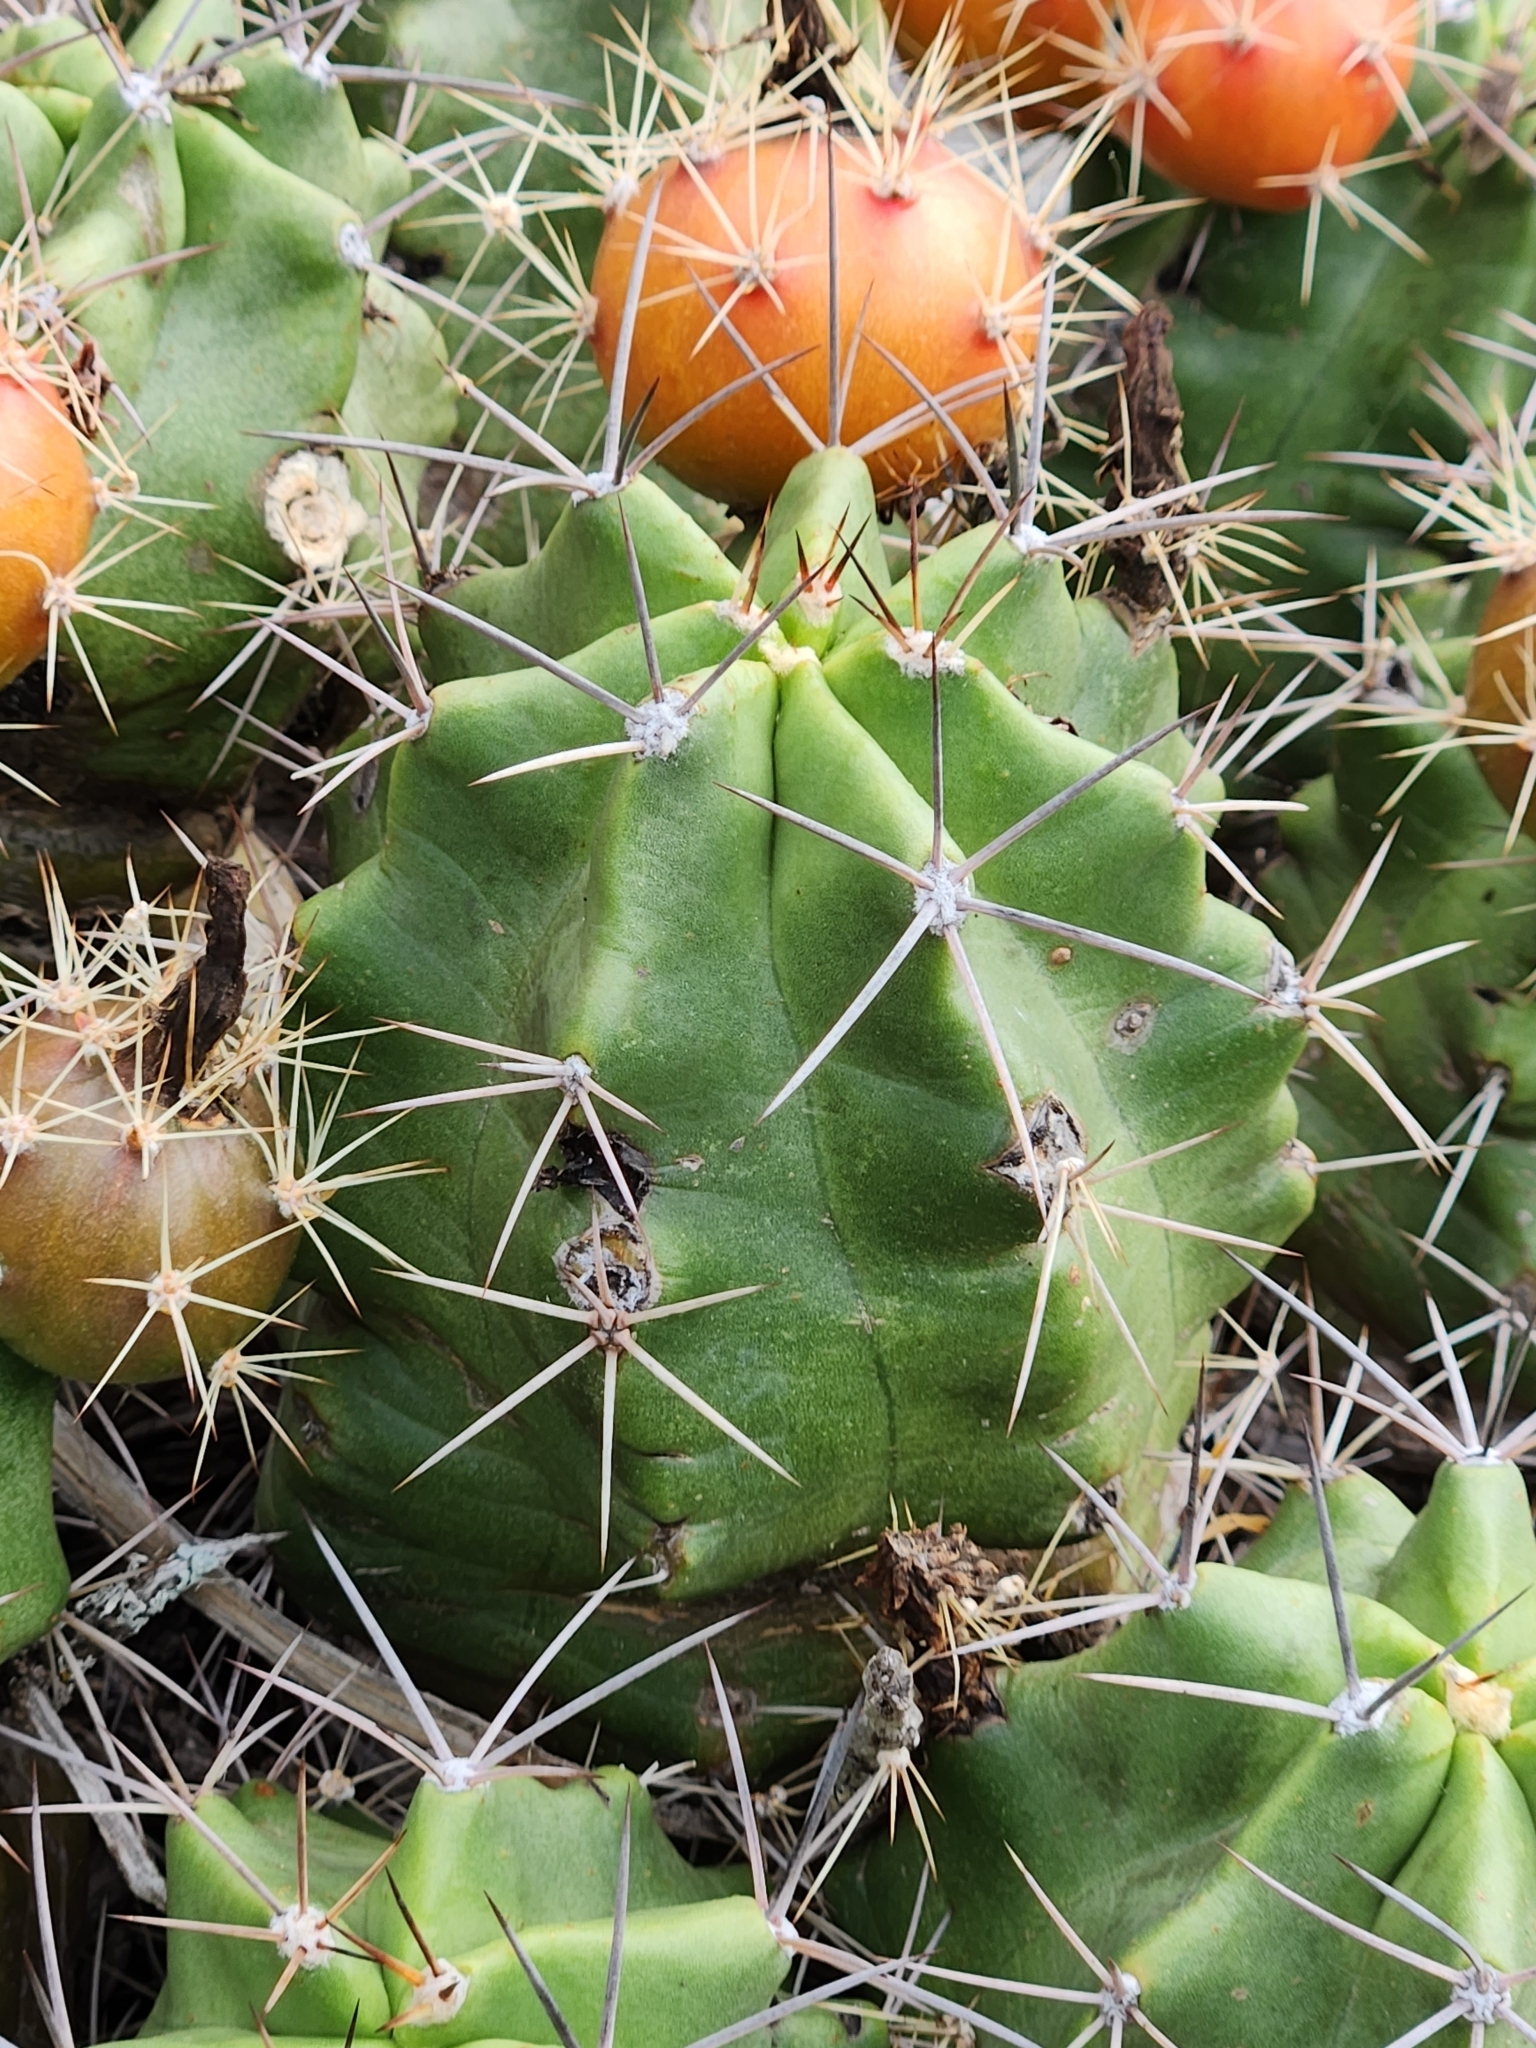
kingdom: Plantae
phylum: Tracheophyta
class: Magnoliopsida
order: Caryophyllales
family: Cactaceae
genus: Echinocereus
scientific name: Echinocereus coccineus
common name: Scarlet hedgehog cactus
